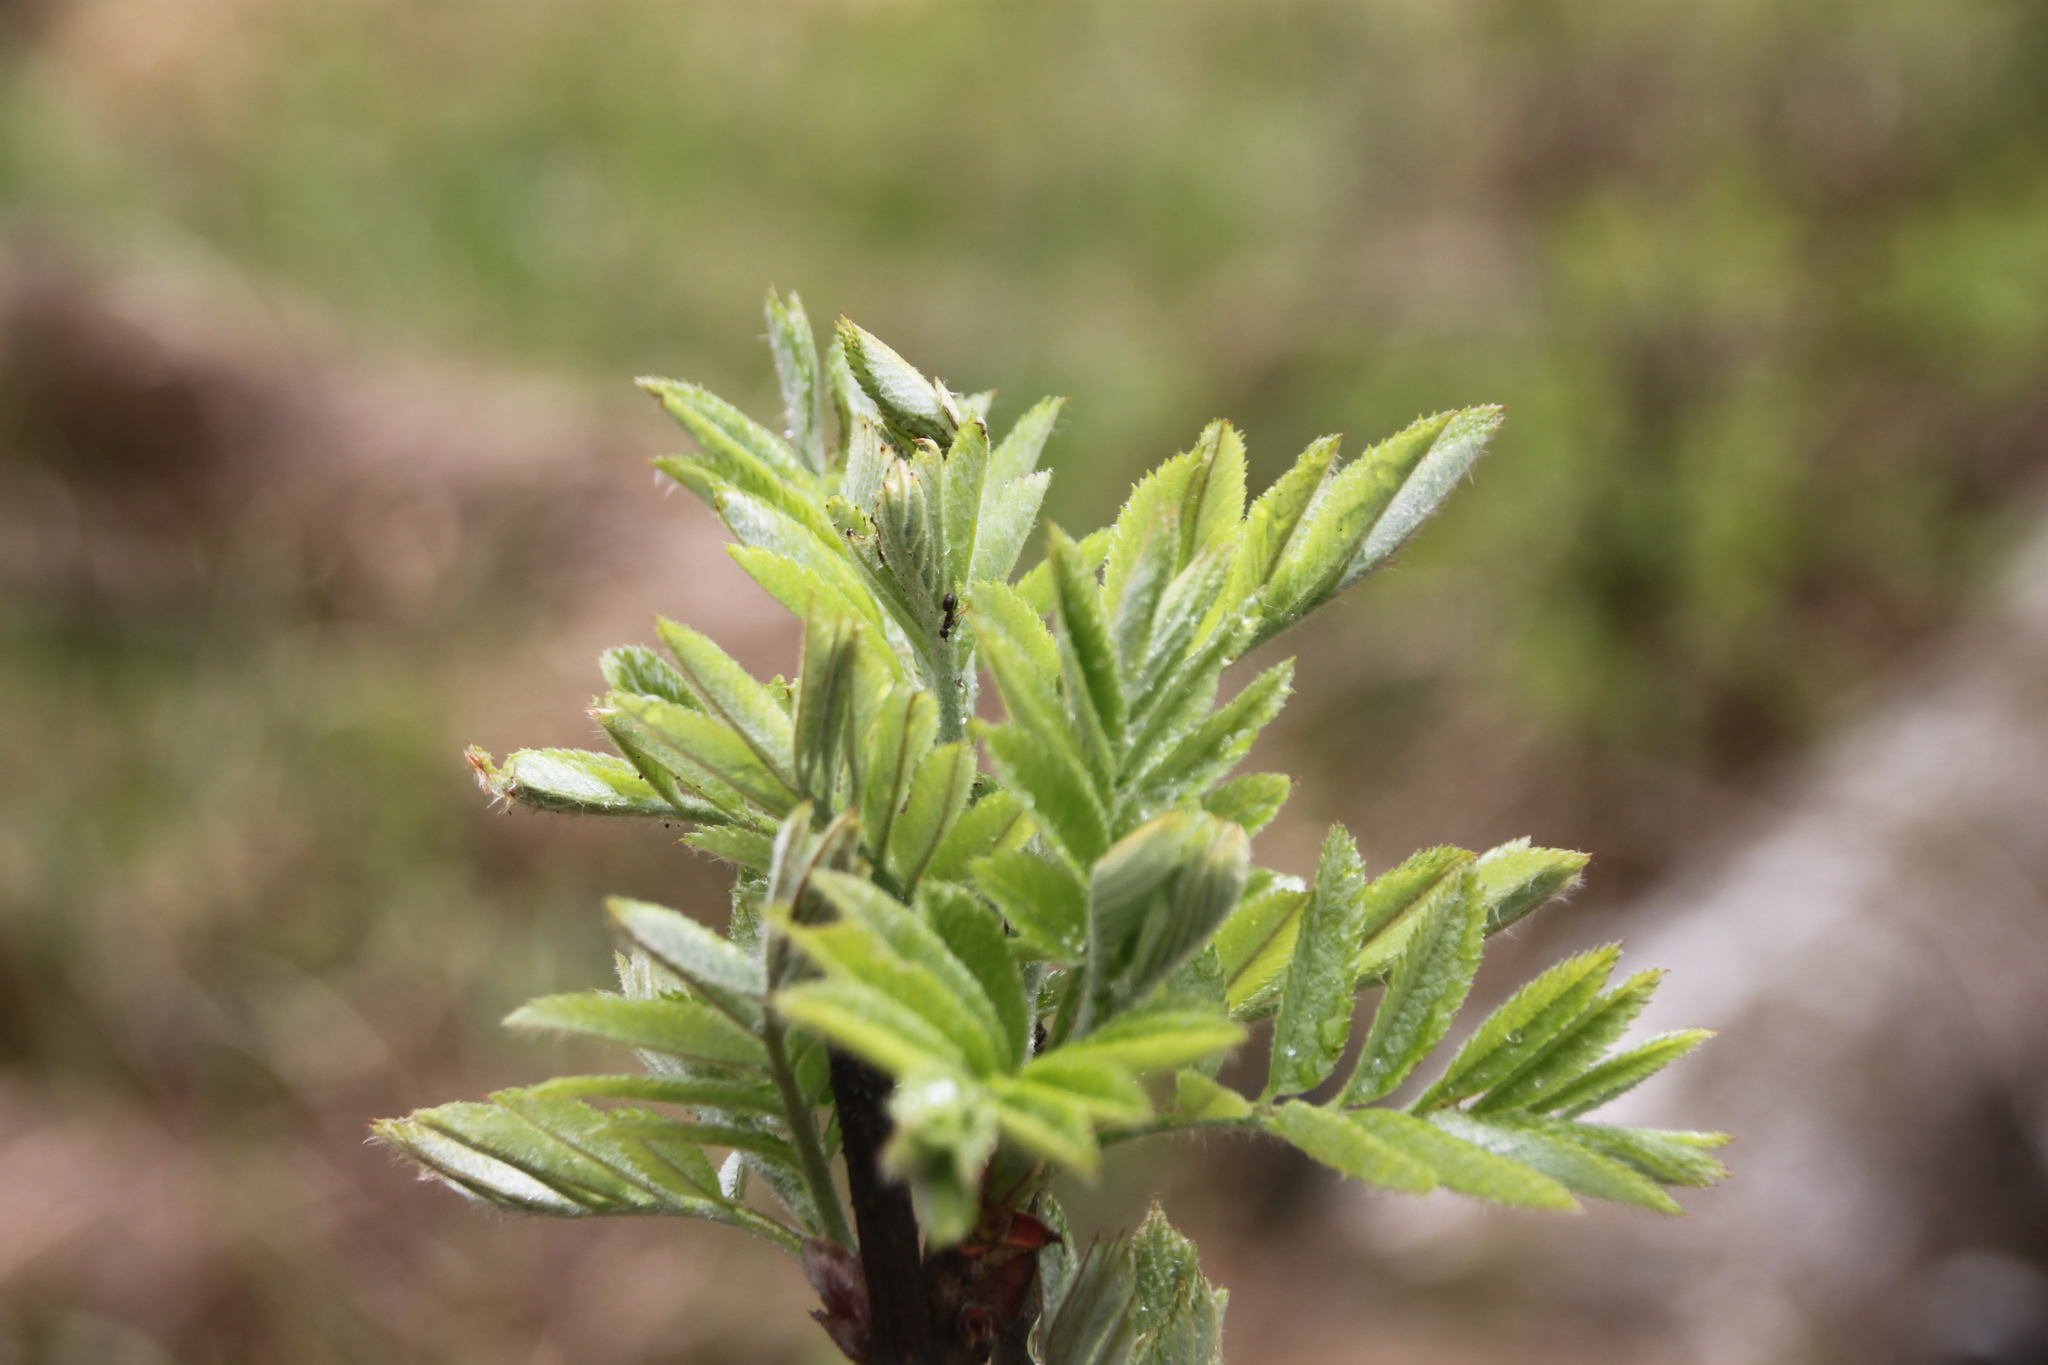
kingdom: Plantae
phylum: Tracheophyta
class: Magnoliopsida
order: Rosales
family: Rosaceae
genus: Sorbus
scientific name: Sorbus aucuparia
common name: Rowan
